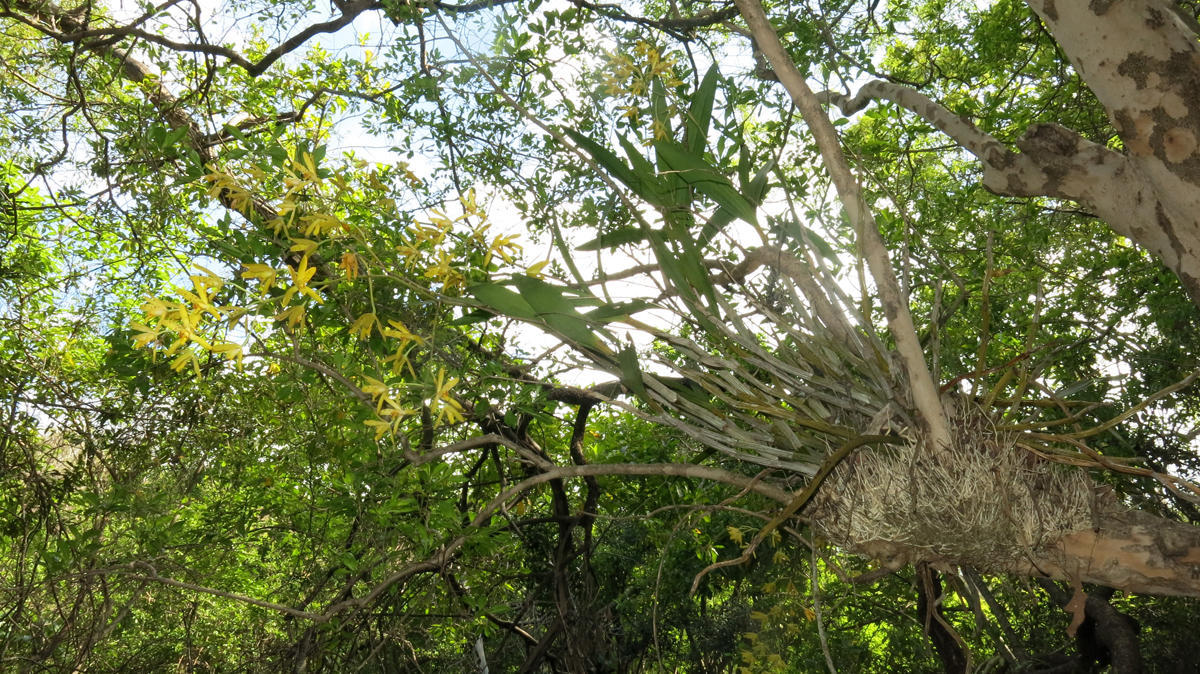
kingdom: Plantae
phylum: Tracheophyta
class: Liliopsida
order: Asparagales
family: Orchidaceae
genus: Ansellia
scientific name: Ansellia africana
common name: African ansellia
